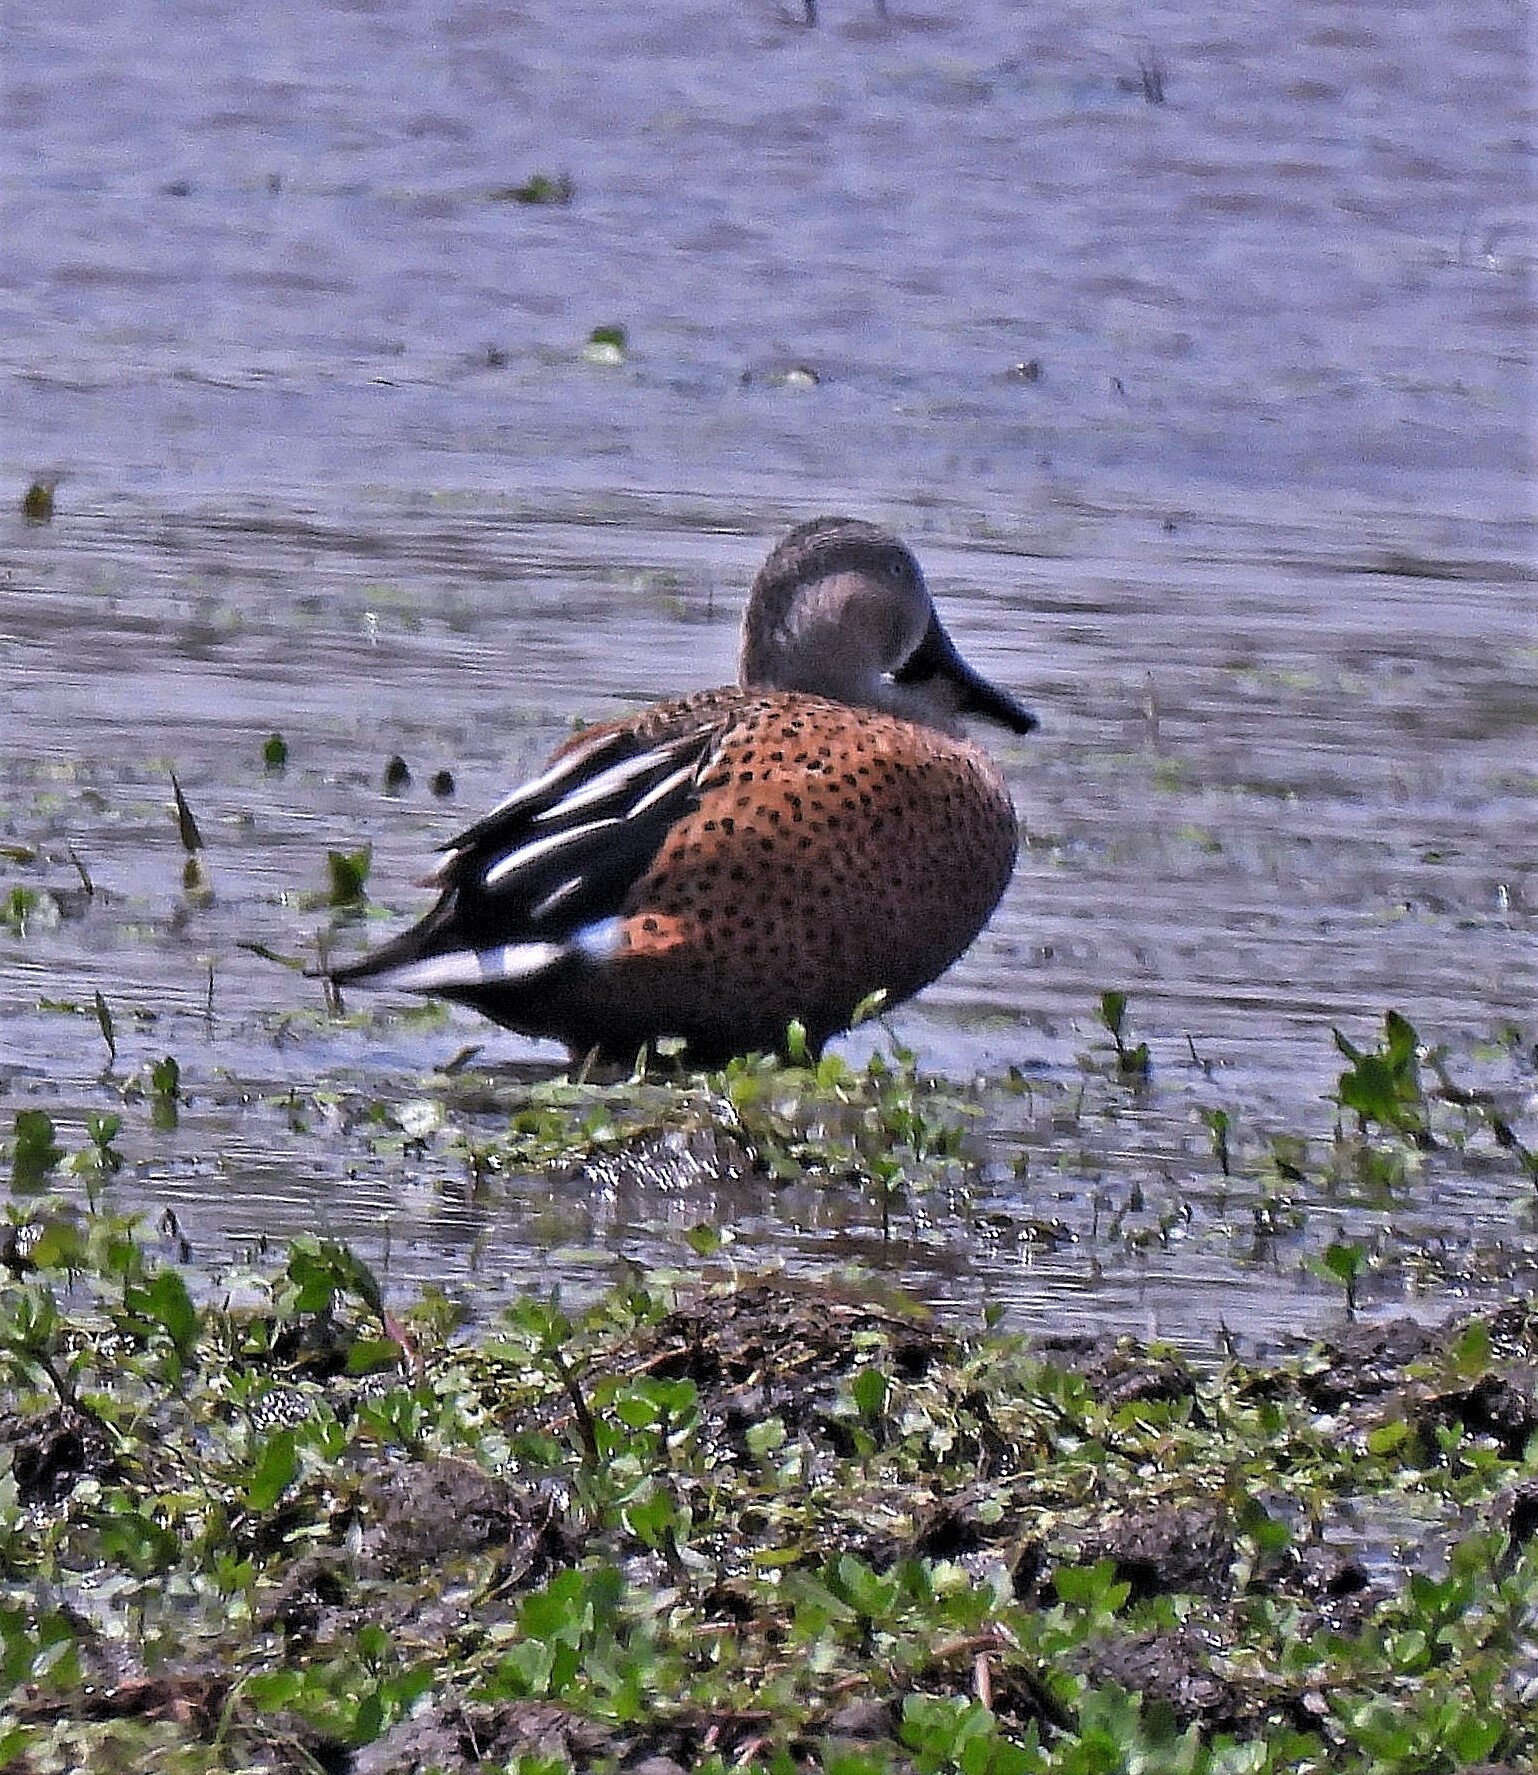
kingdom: Animalia
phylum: Chordata
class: Aves
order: Anseriformes
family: Anatidae
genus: Spatula
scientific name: Spatula platalea
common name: Red shoveler
